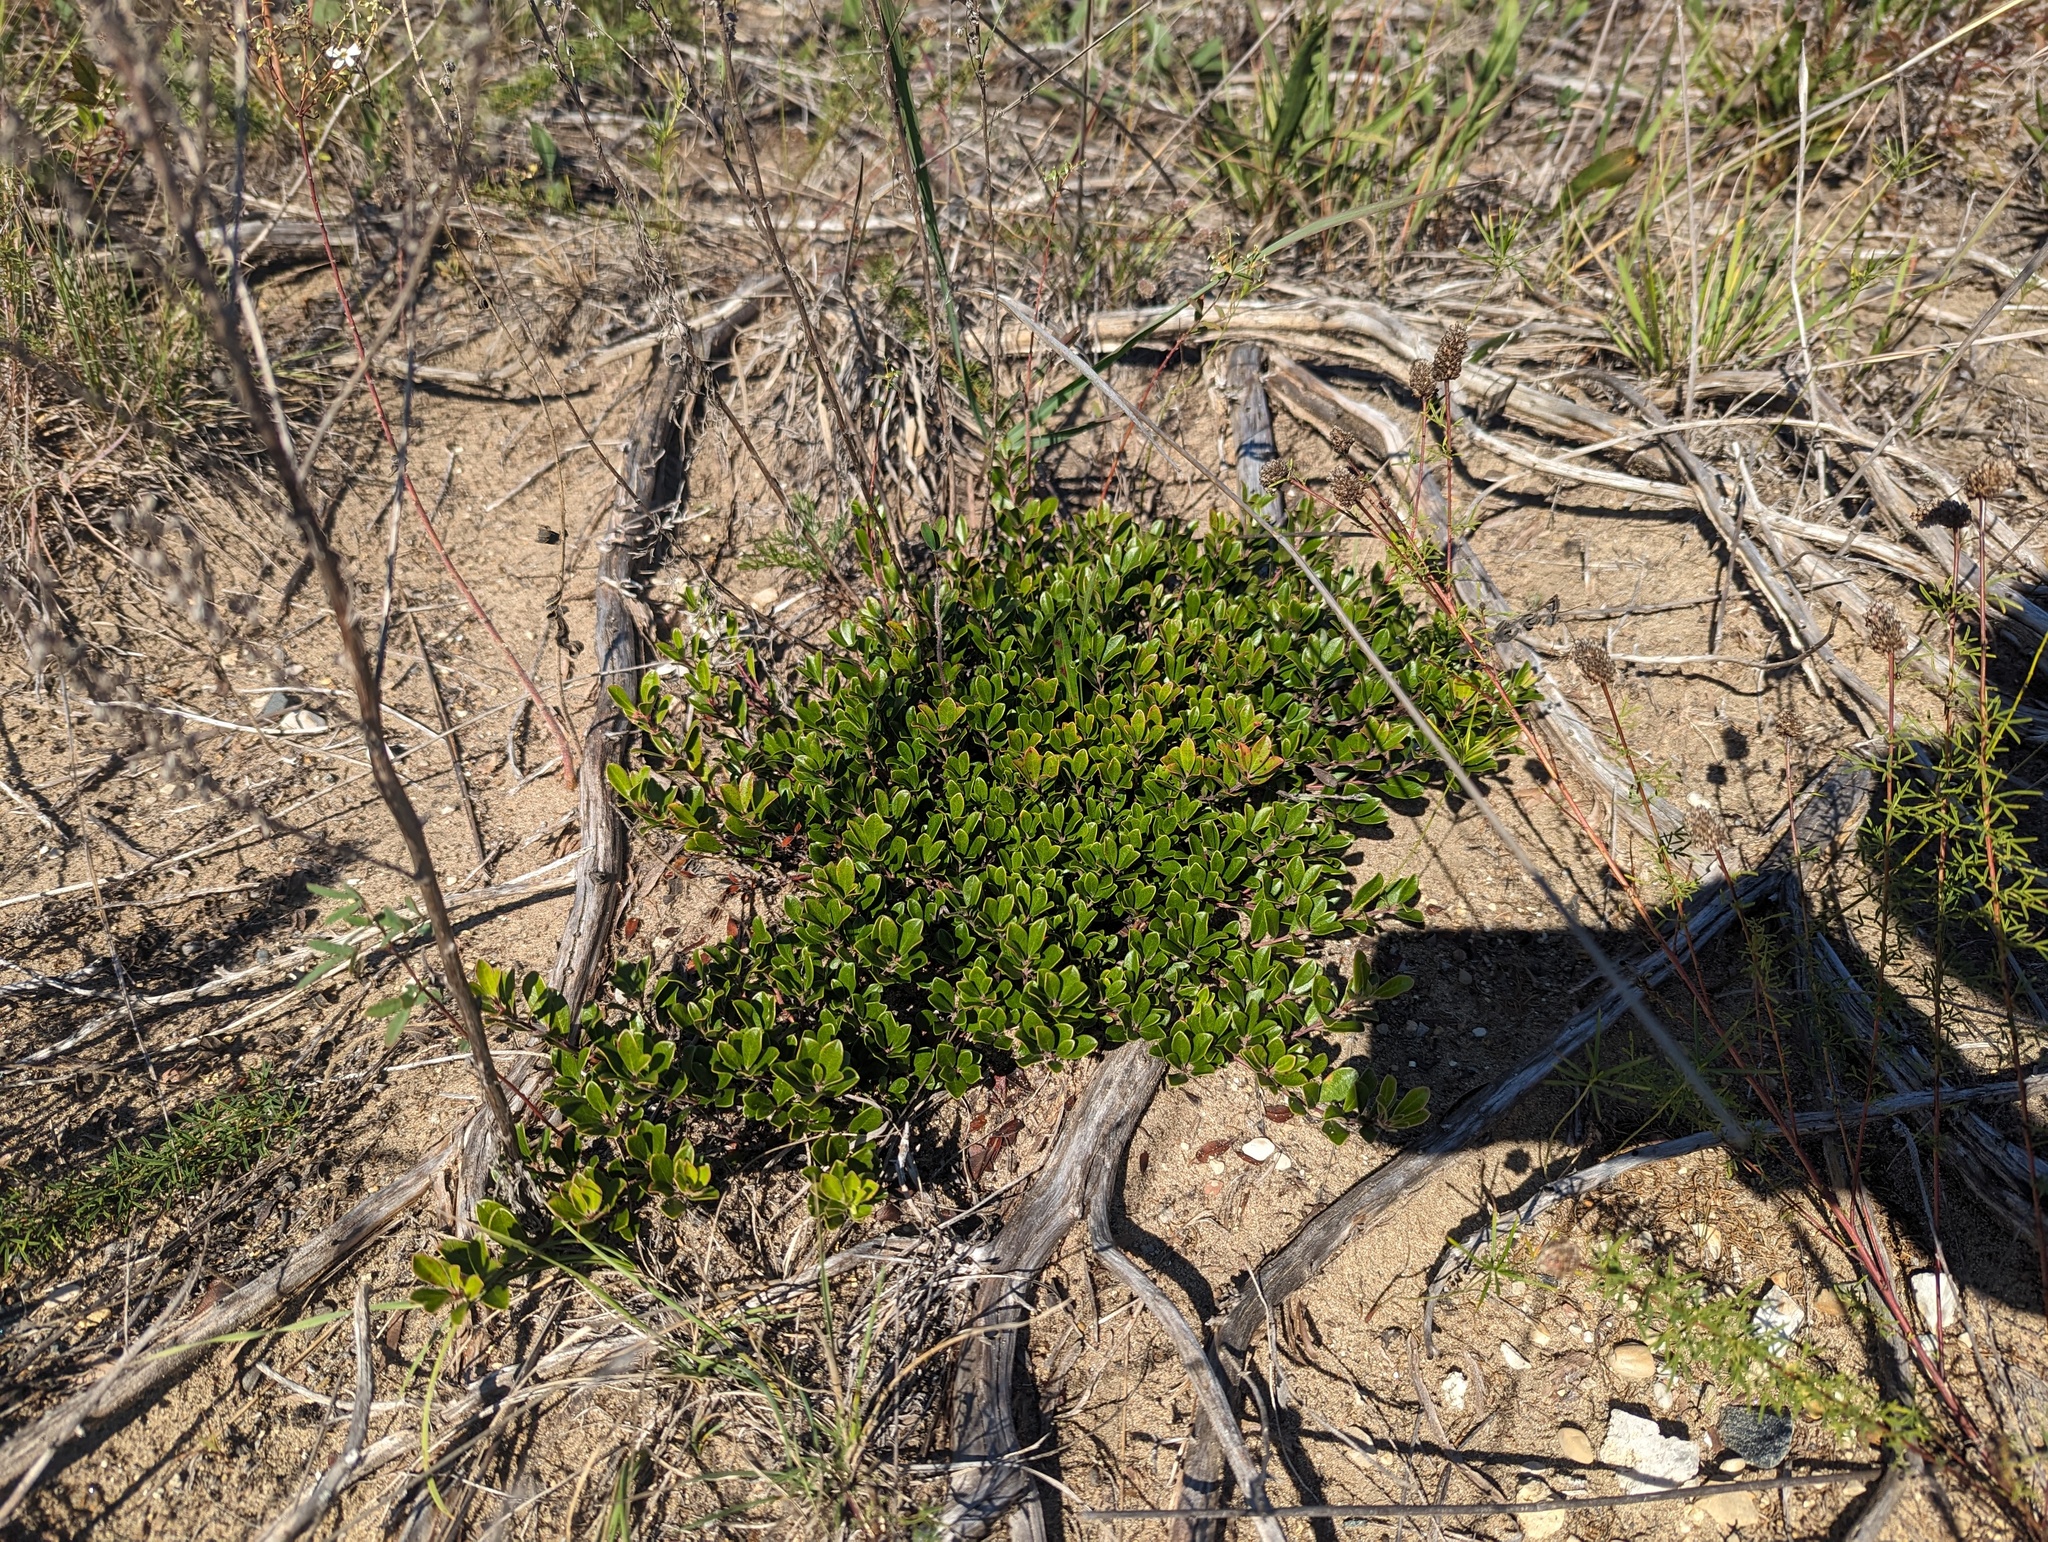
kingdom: Plantae
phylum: Tracheophyta
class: Magnoliopsida
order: Ericales
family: Ericaceae
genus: Arctostaphylos
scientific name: Arctostaphylos uva-ursi
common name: Bearberry
